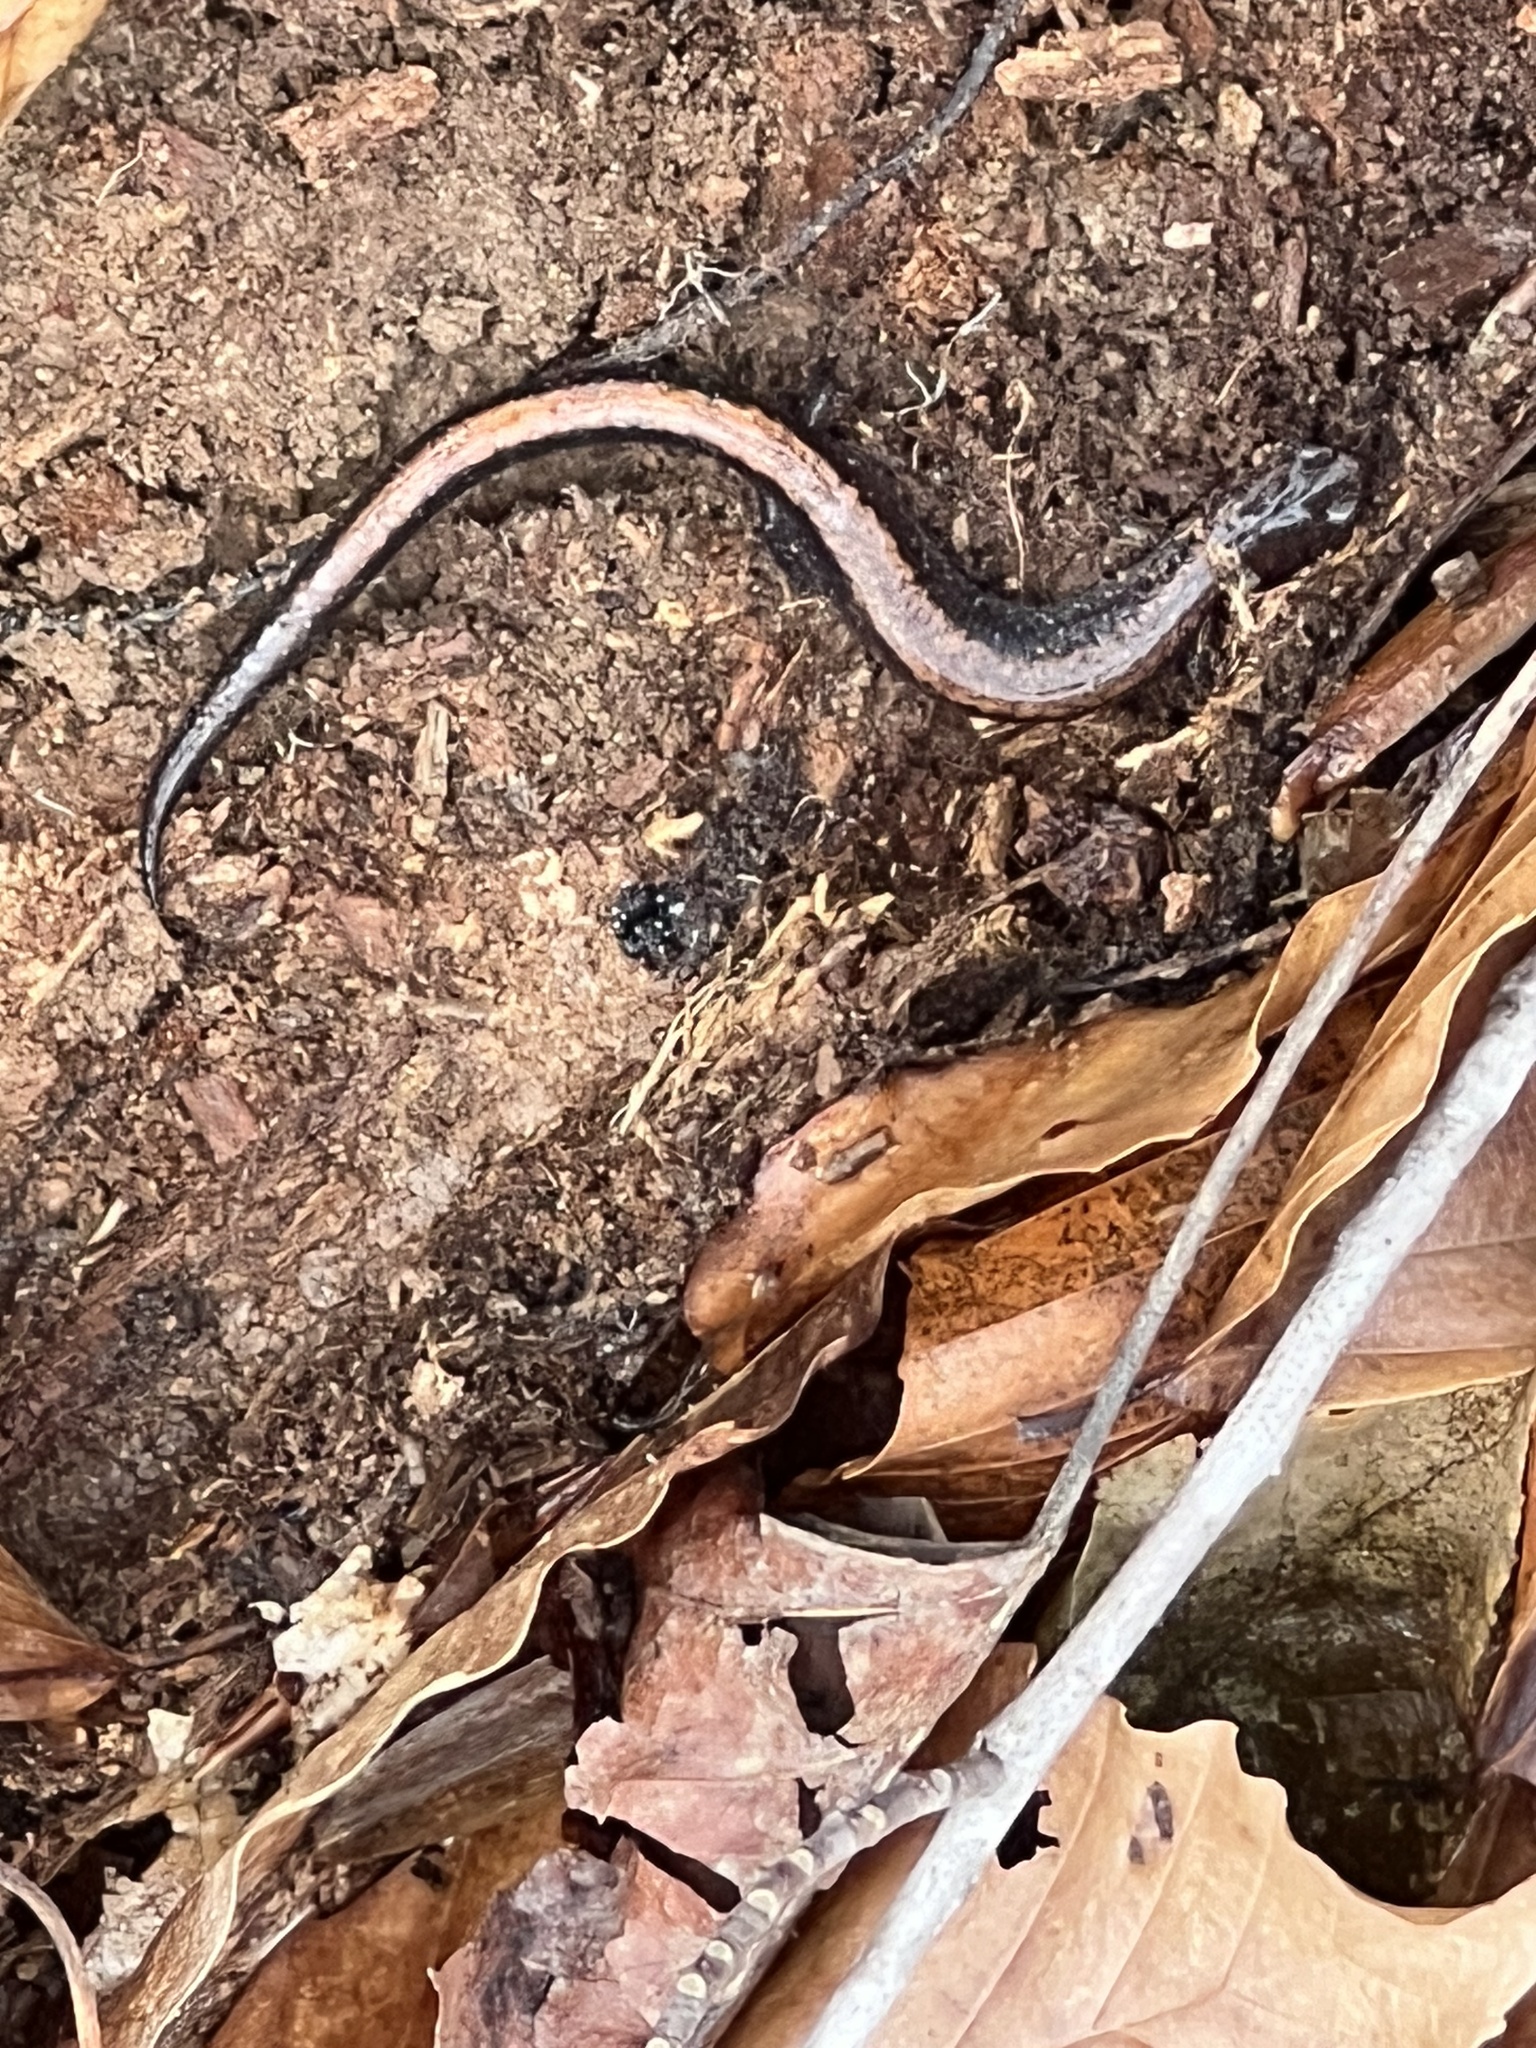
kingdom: Animalia
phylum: Chordata
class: Amphibia
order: Caudata
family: Plethodontidae
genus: Plethodon
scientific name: Plethodon cinereus
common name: Redback salamander
